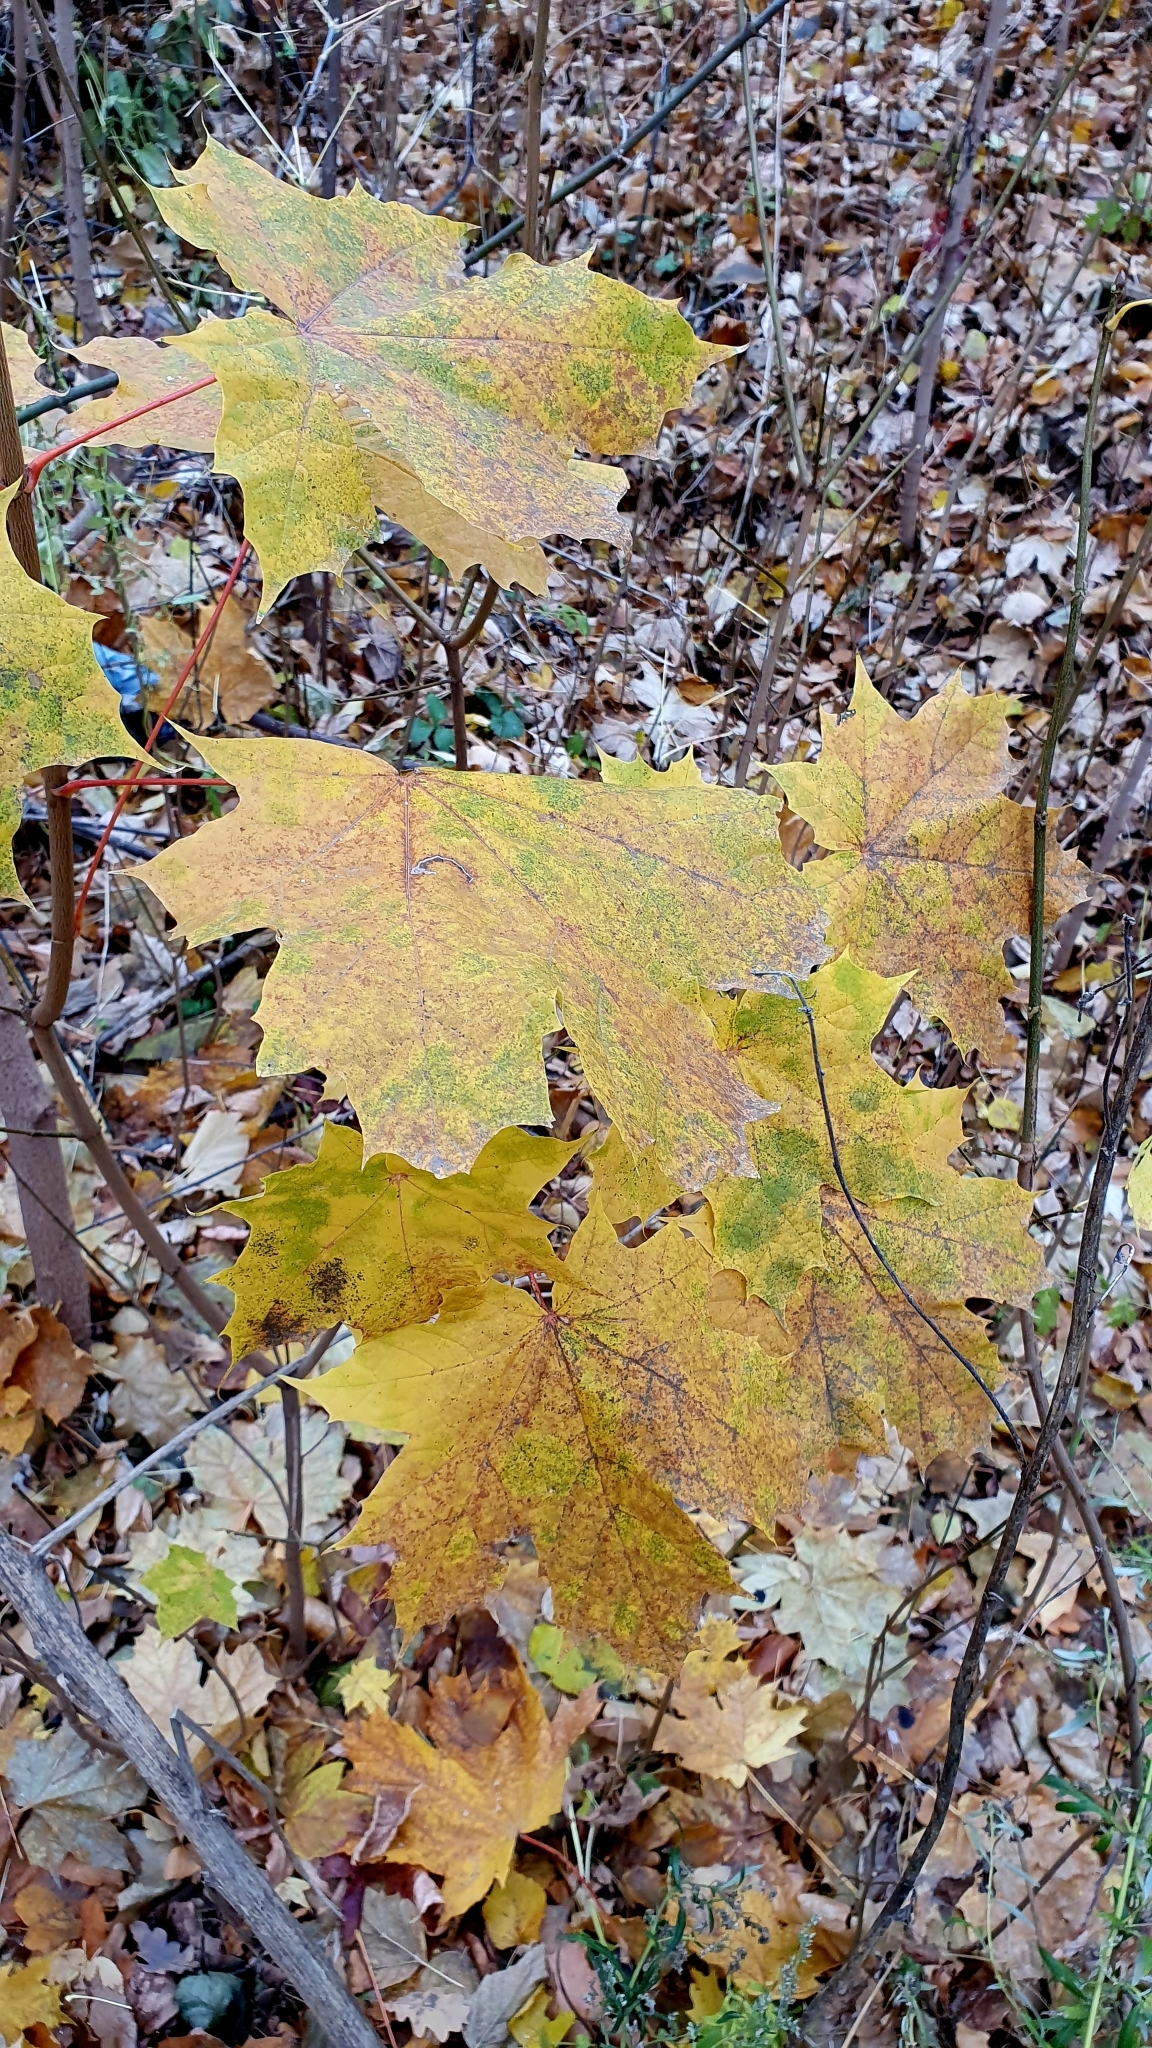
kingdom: Plantae
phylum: Tracheophyta
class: Magnoliopsida
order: Sapindales
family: Sapindaceae
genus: Acer
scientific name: Acer platanoides
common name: Norway maple
